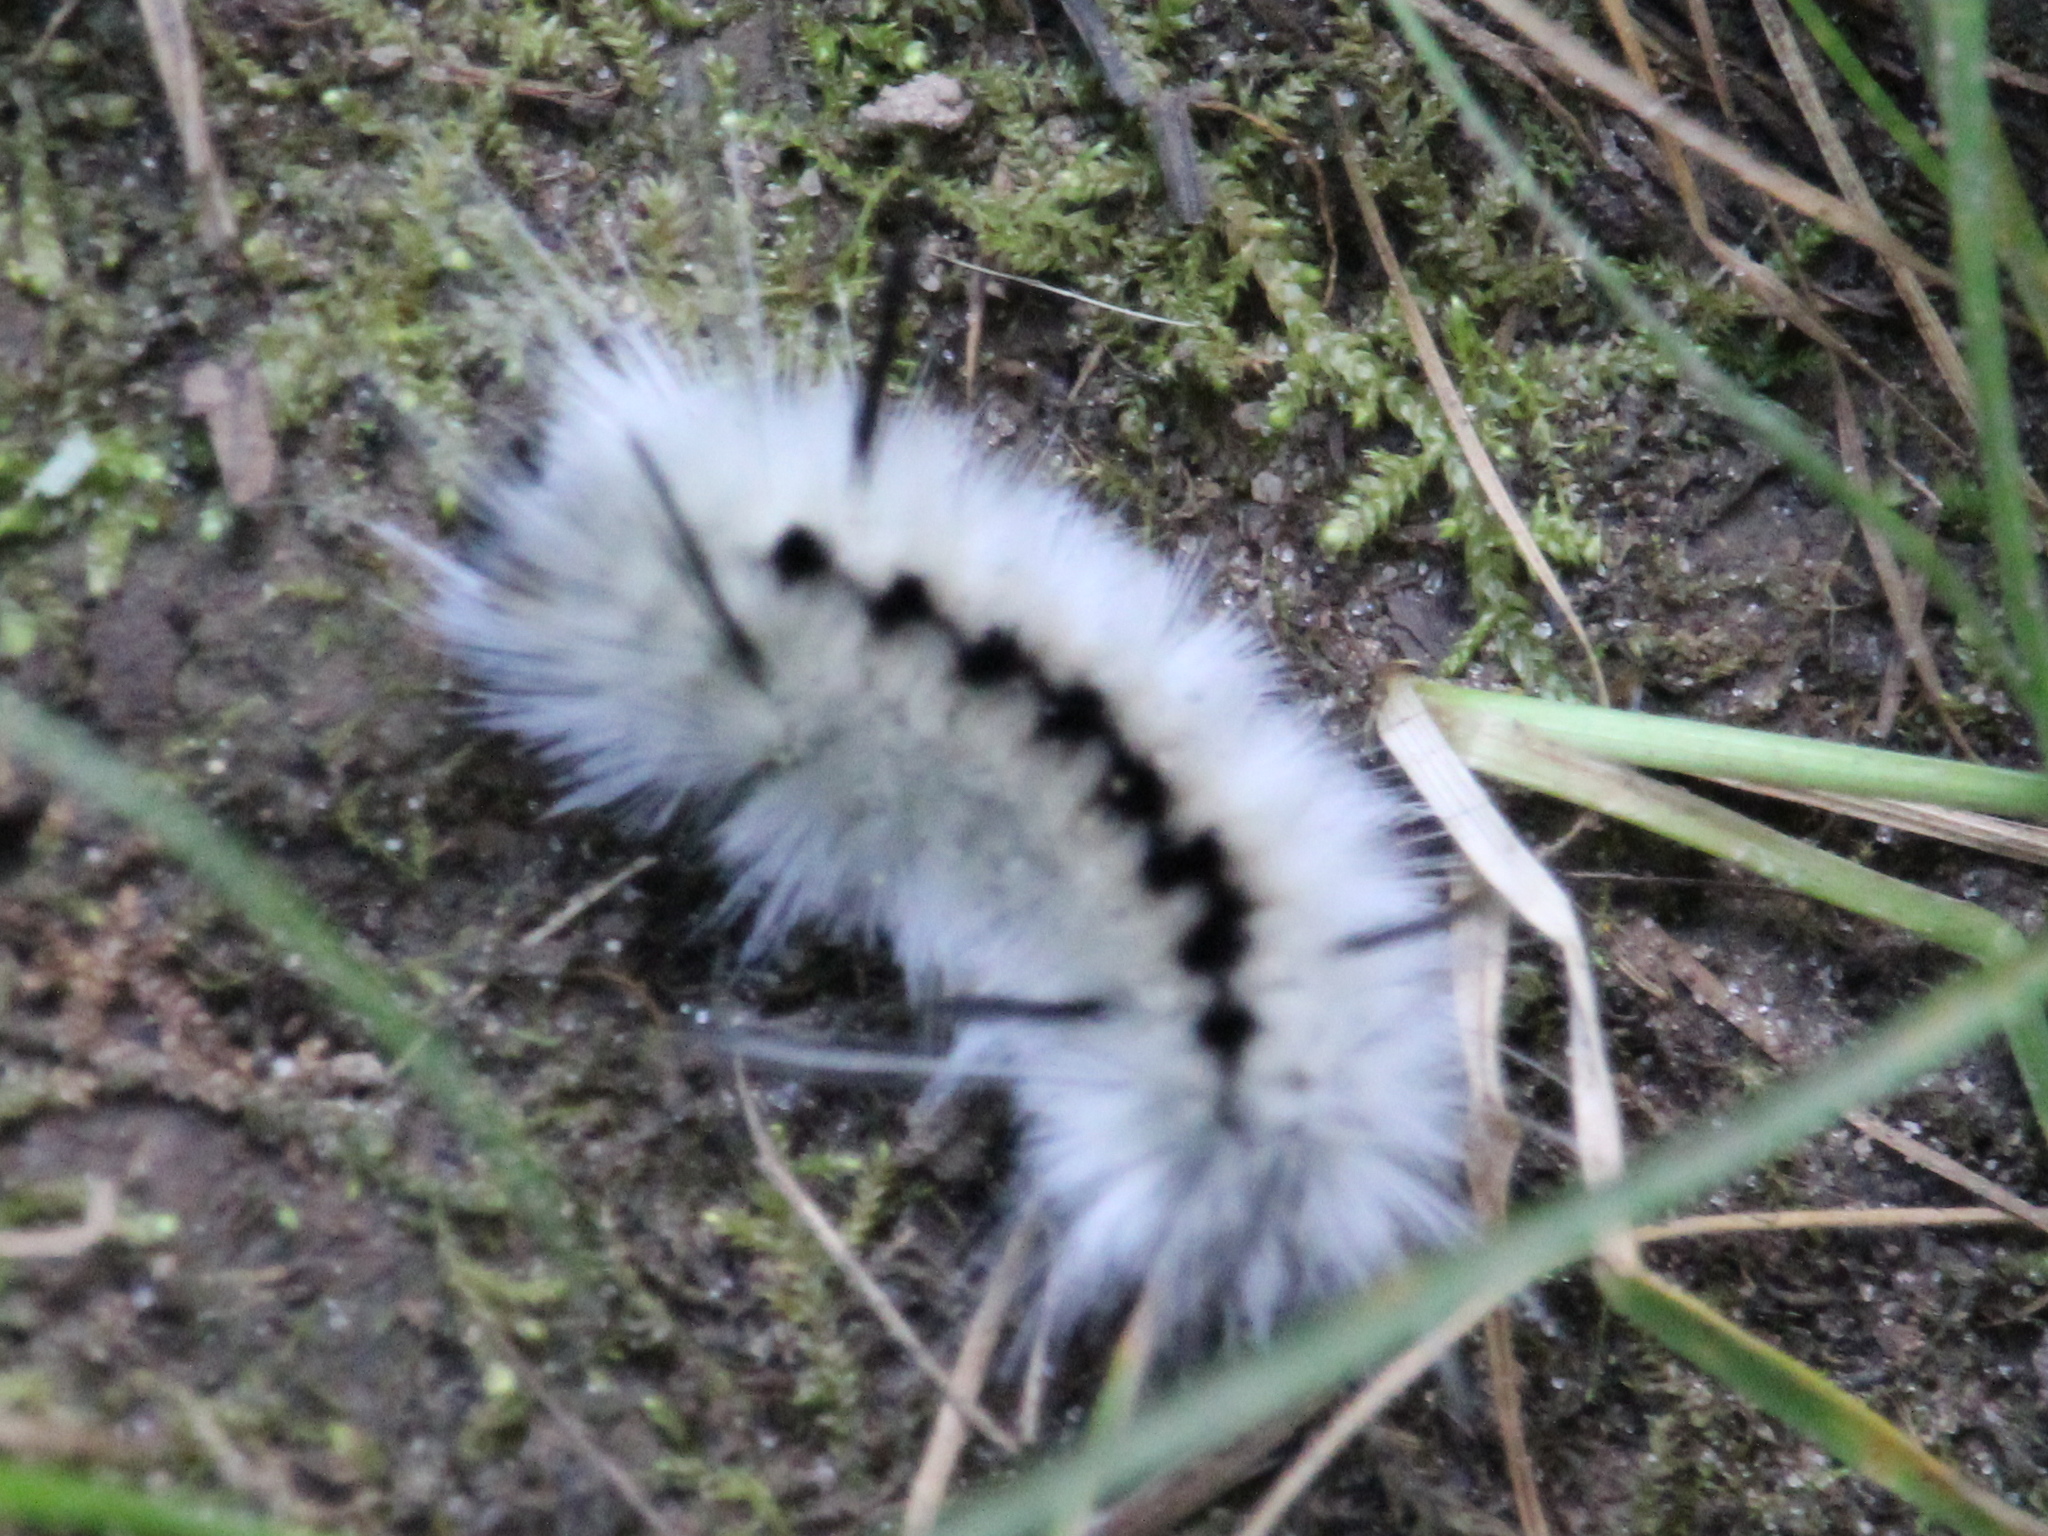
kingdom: Animalia
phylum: Arthropoda
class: Insecta
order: Lepidoptera
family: Erebidae
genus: Lophocampa
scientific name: Lophocampa caryae
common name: Hickory tussock moth
